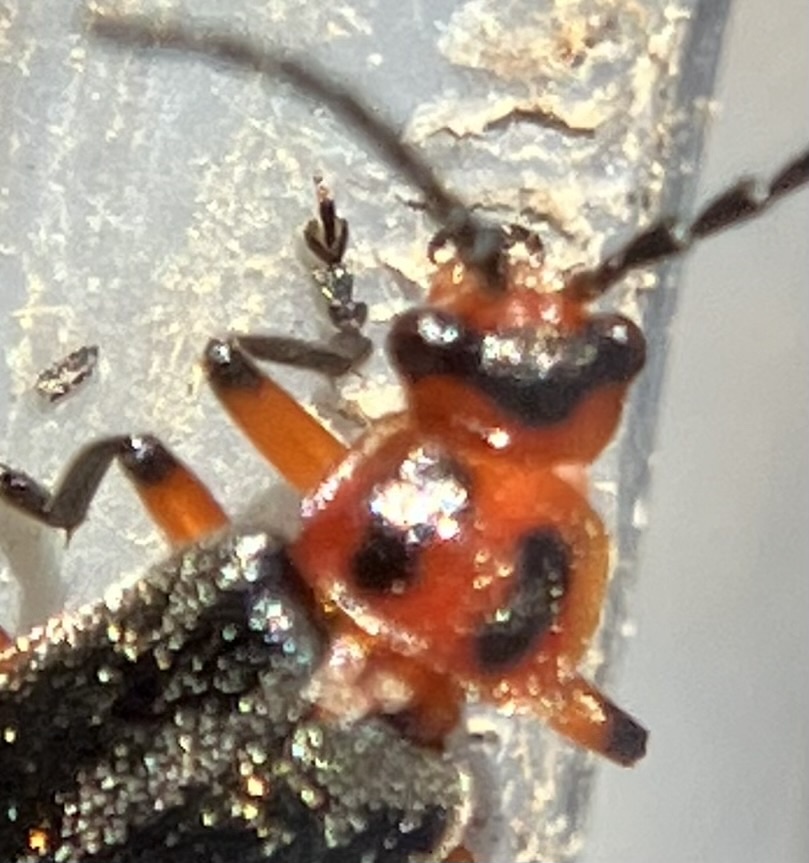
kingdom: Animalia
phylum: Arthropoda
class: Insecta
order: Coleoptera
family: Cantharidae
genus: Atalantycha
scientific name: Atalantycha bilineata
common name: Two-lined leatherwing
